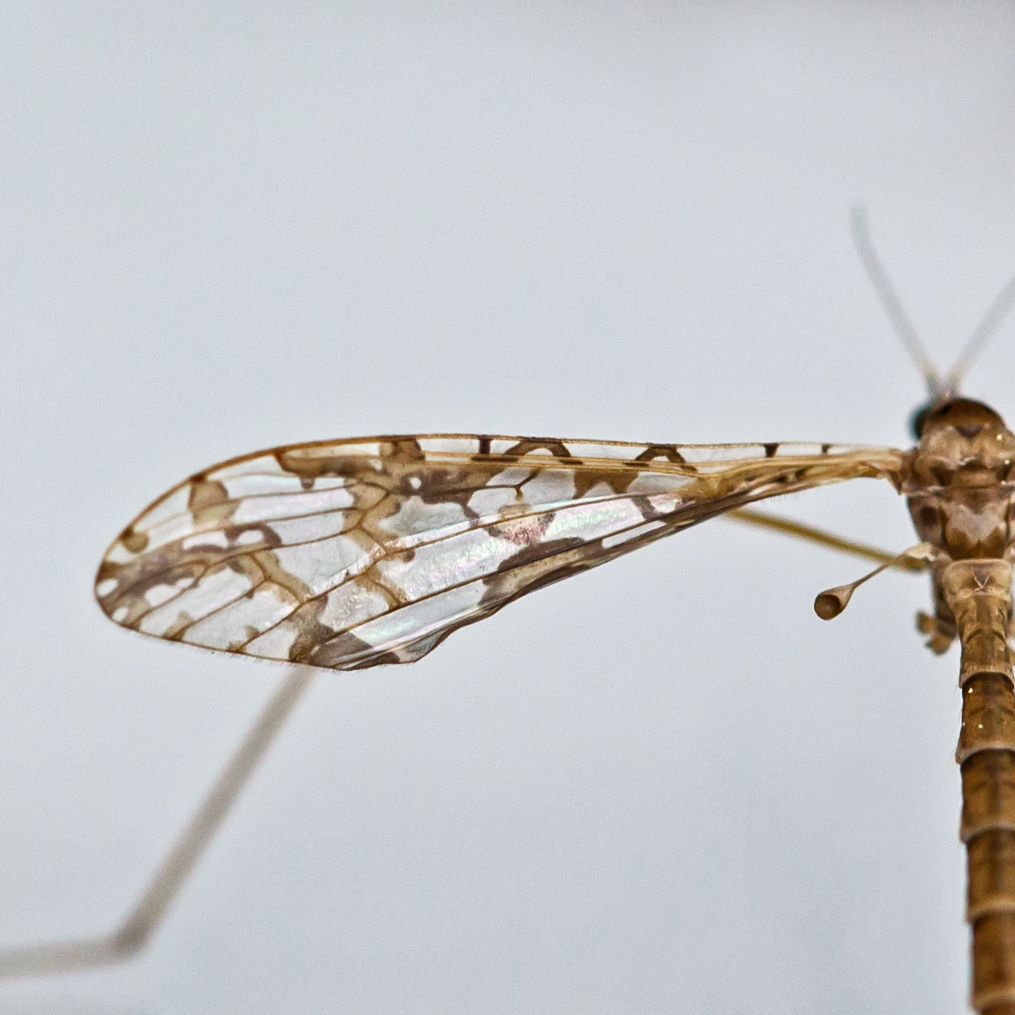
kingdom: Animalia
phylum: Arthropoda
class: Insecta
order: Diptera
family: Limoniidae
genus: Epiphragma
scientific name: Epiphragma solatrix
